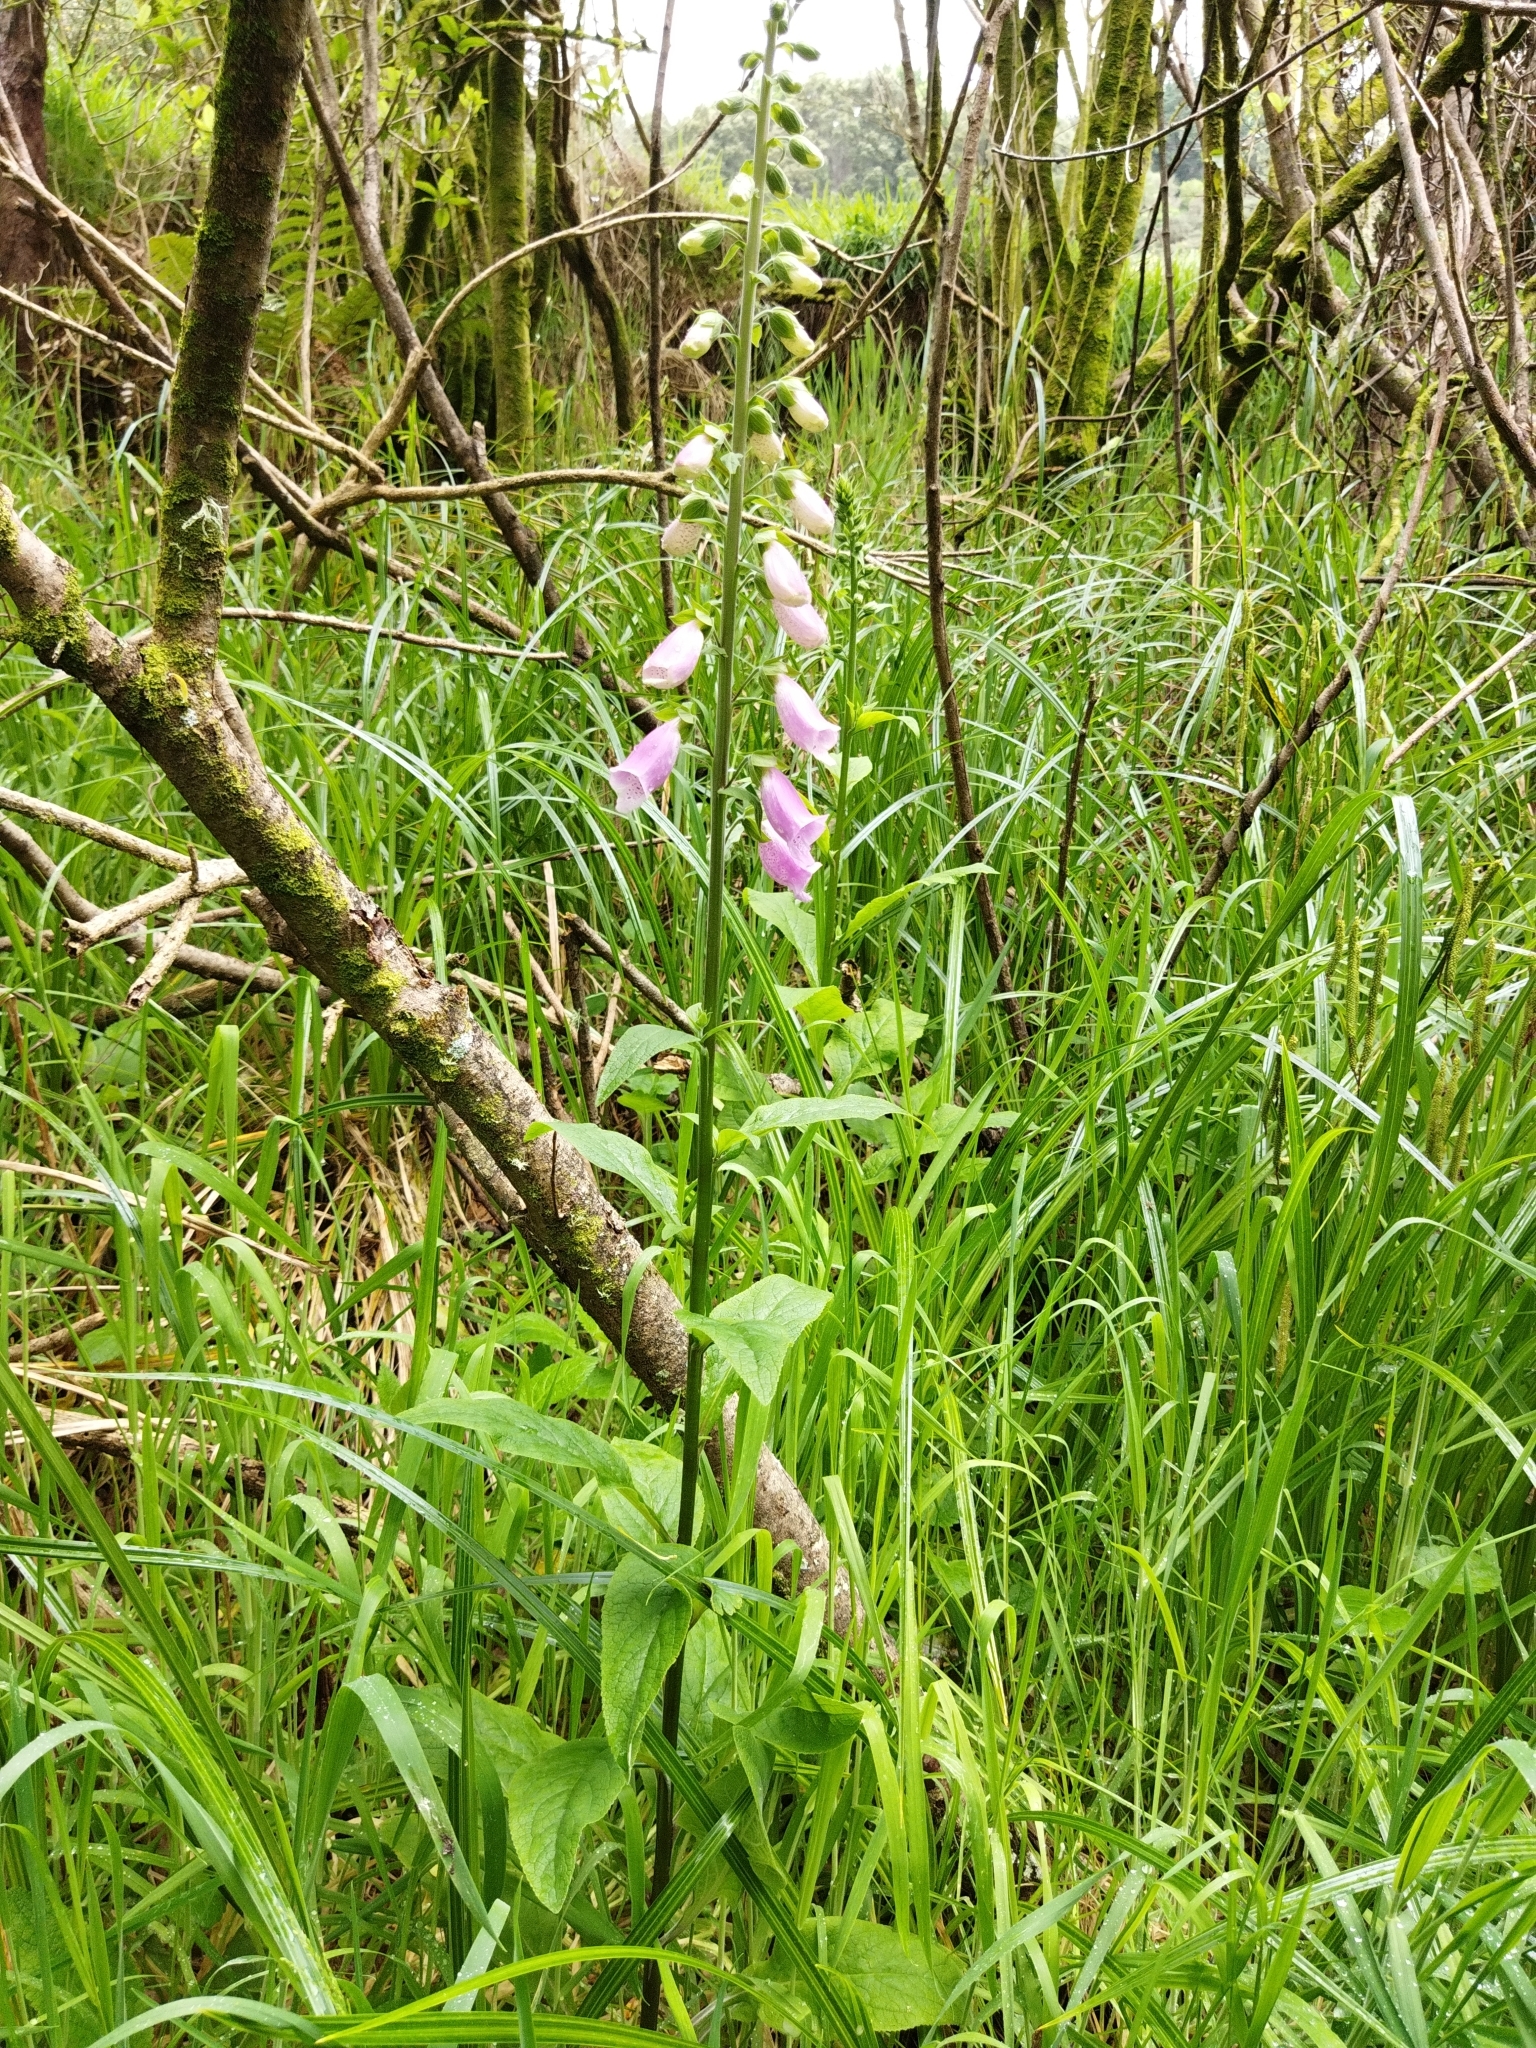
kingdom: Plantae
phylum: Tracheophyta
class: Magnoliopsida
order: Lamiales
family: Plantaginaceae
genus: Digitalis
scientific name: Digitalis purpurea
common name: Foxglove
